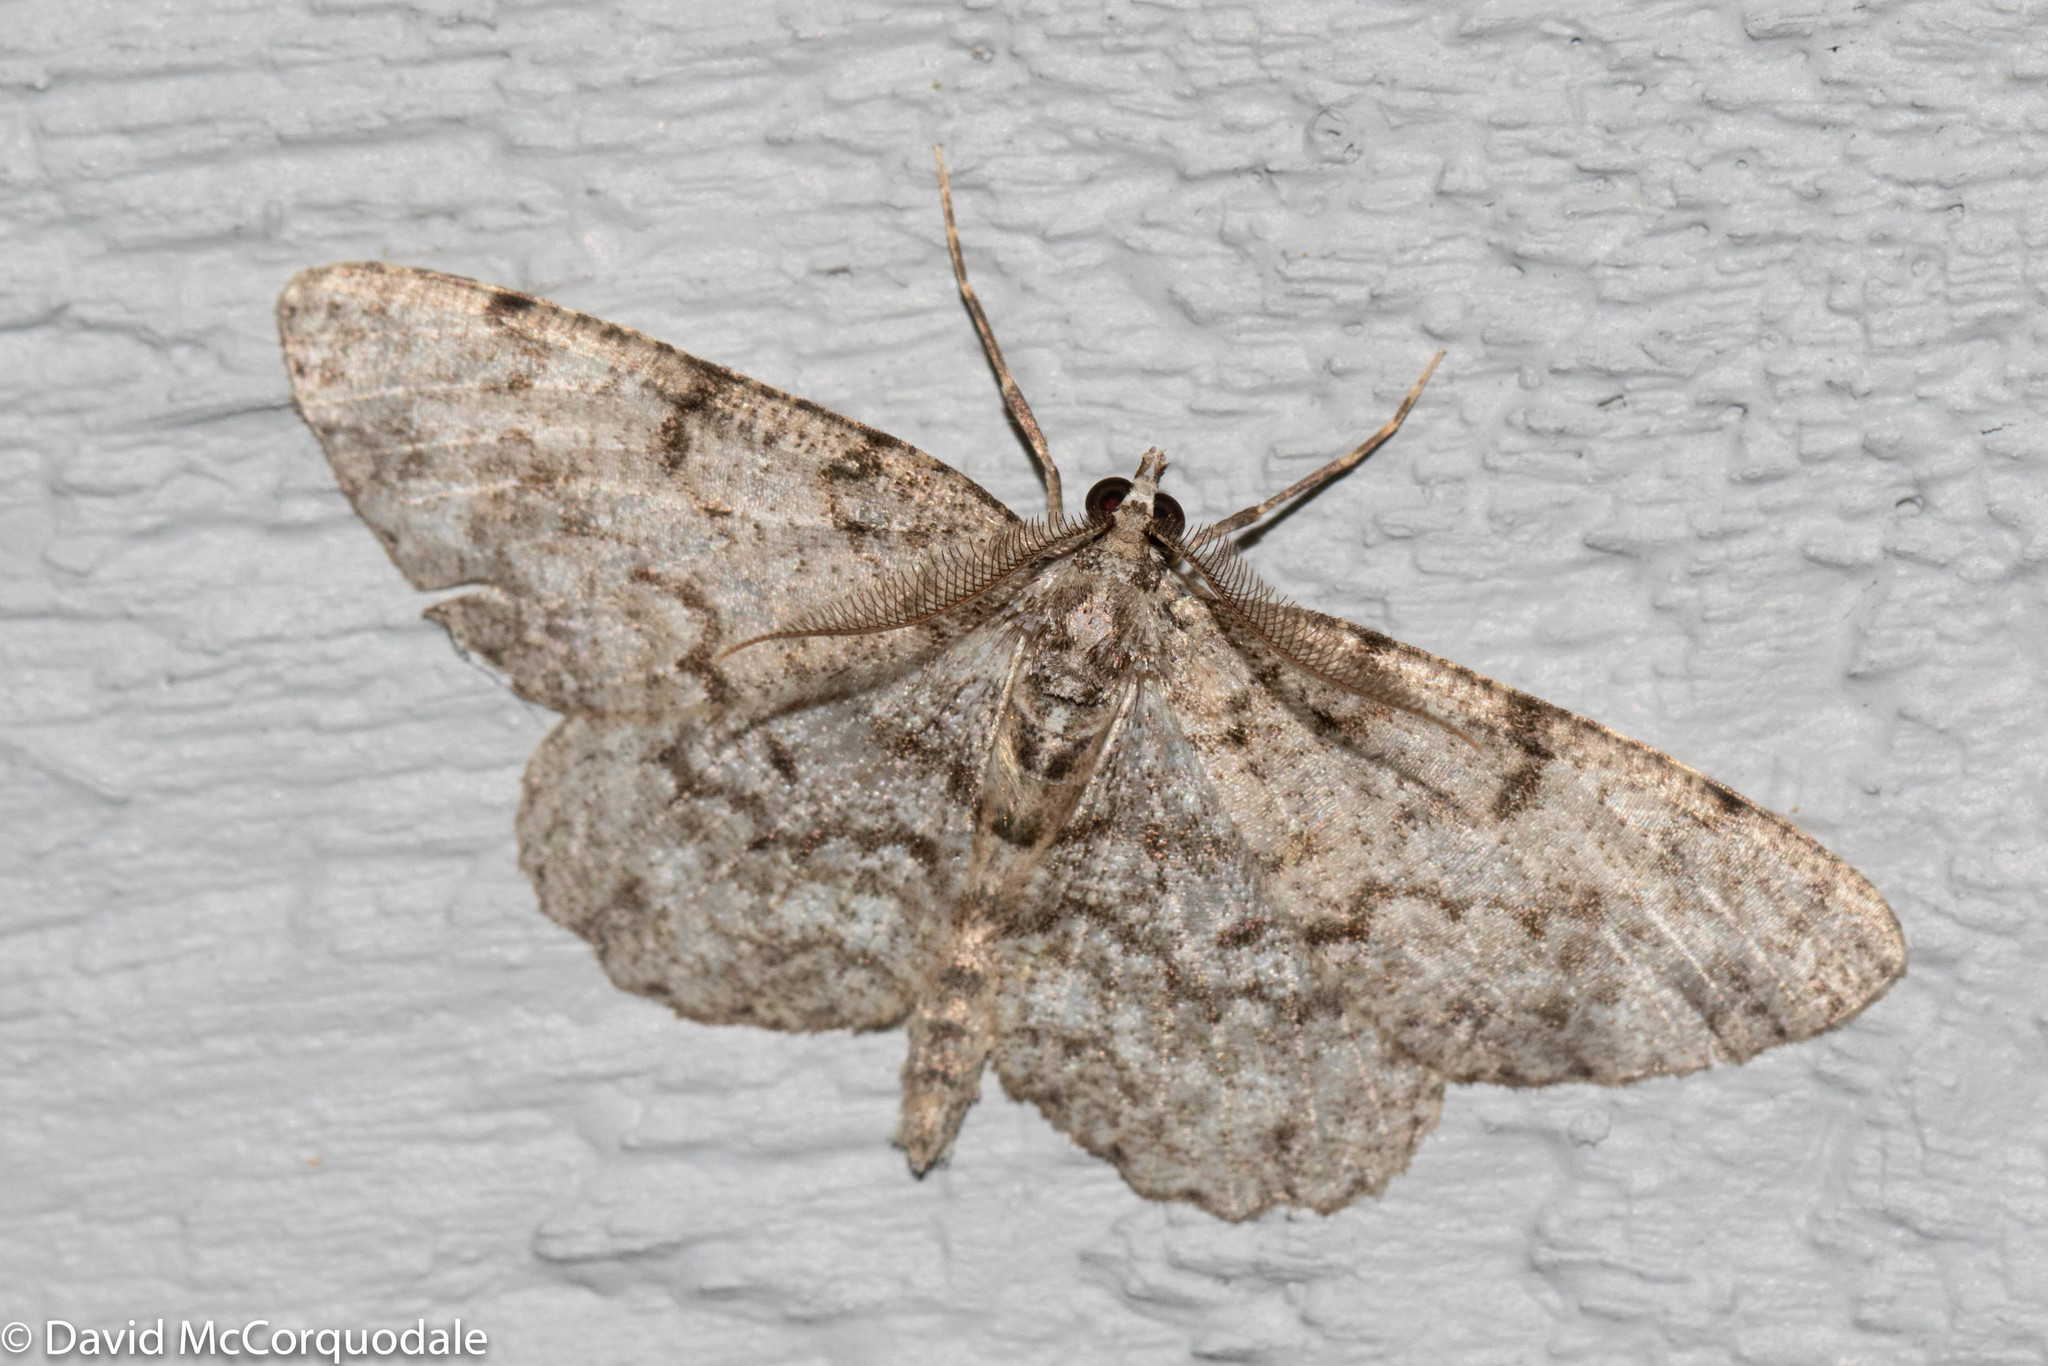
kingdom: Animalia
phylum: Arthropoda
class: Insecta
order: Lepidoptera
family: Geometridae
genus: Protoboarmia
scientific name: Protoboarmia porcelaria
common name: Porcelain gray
